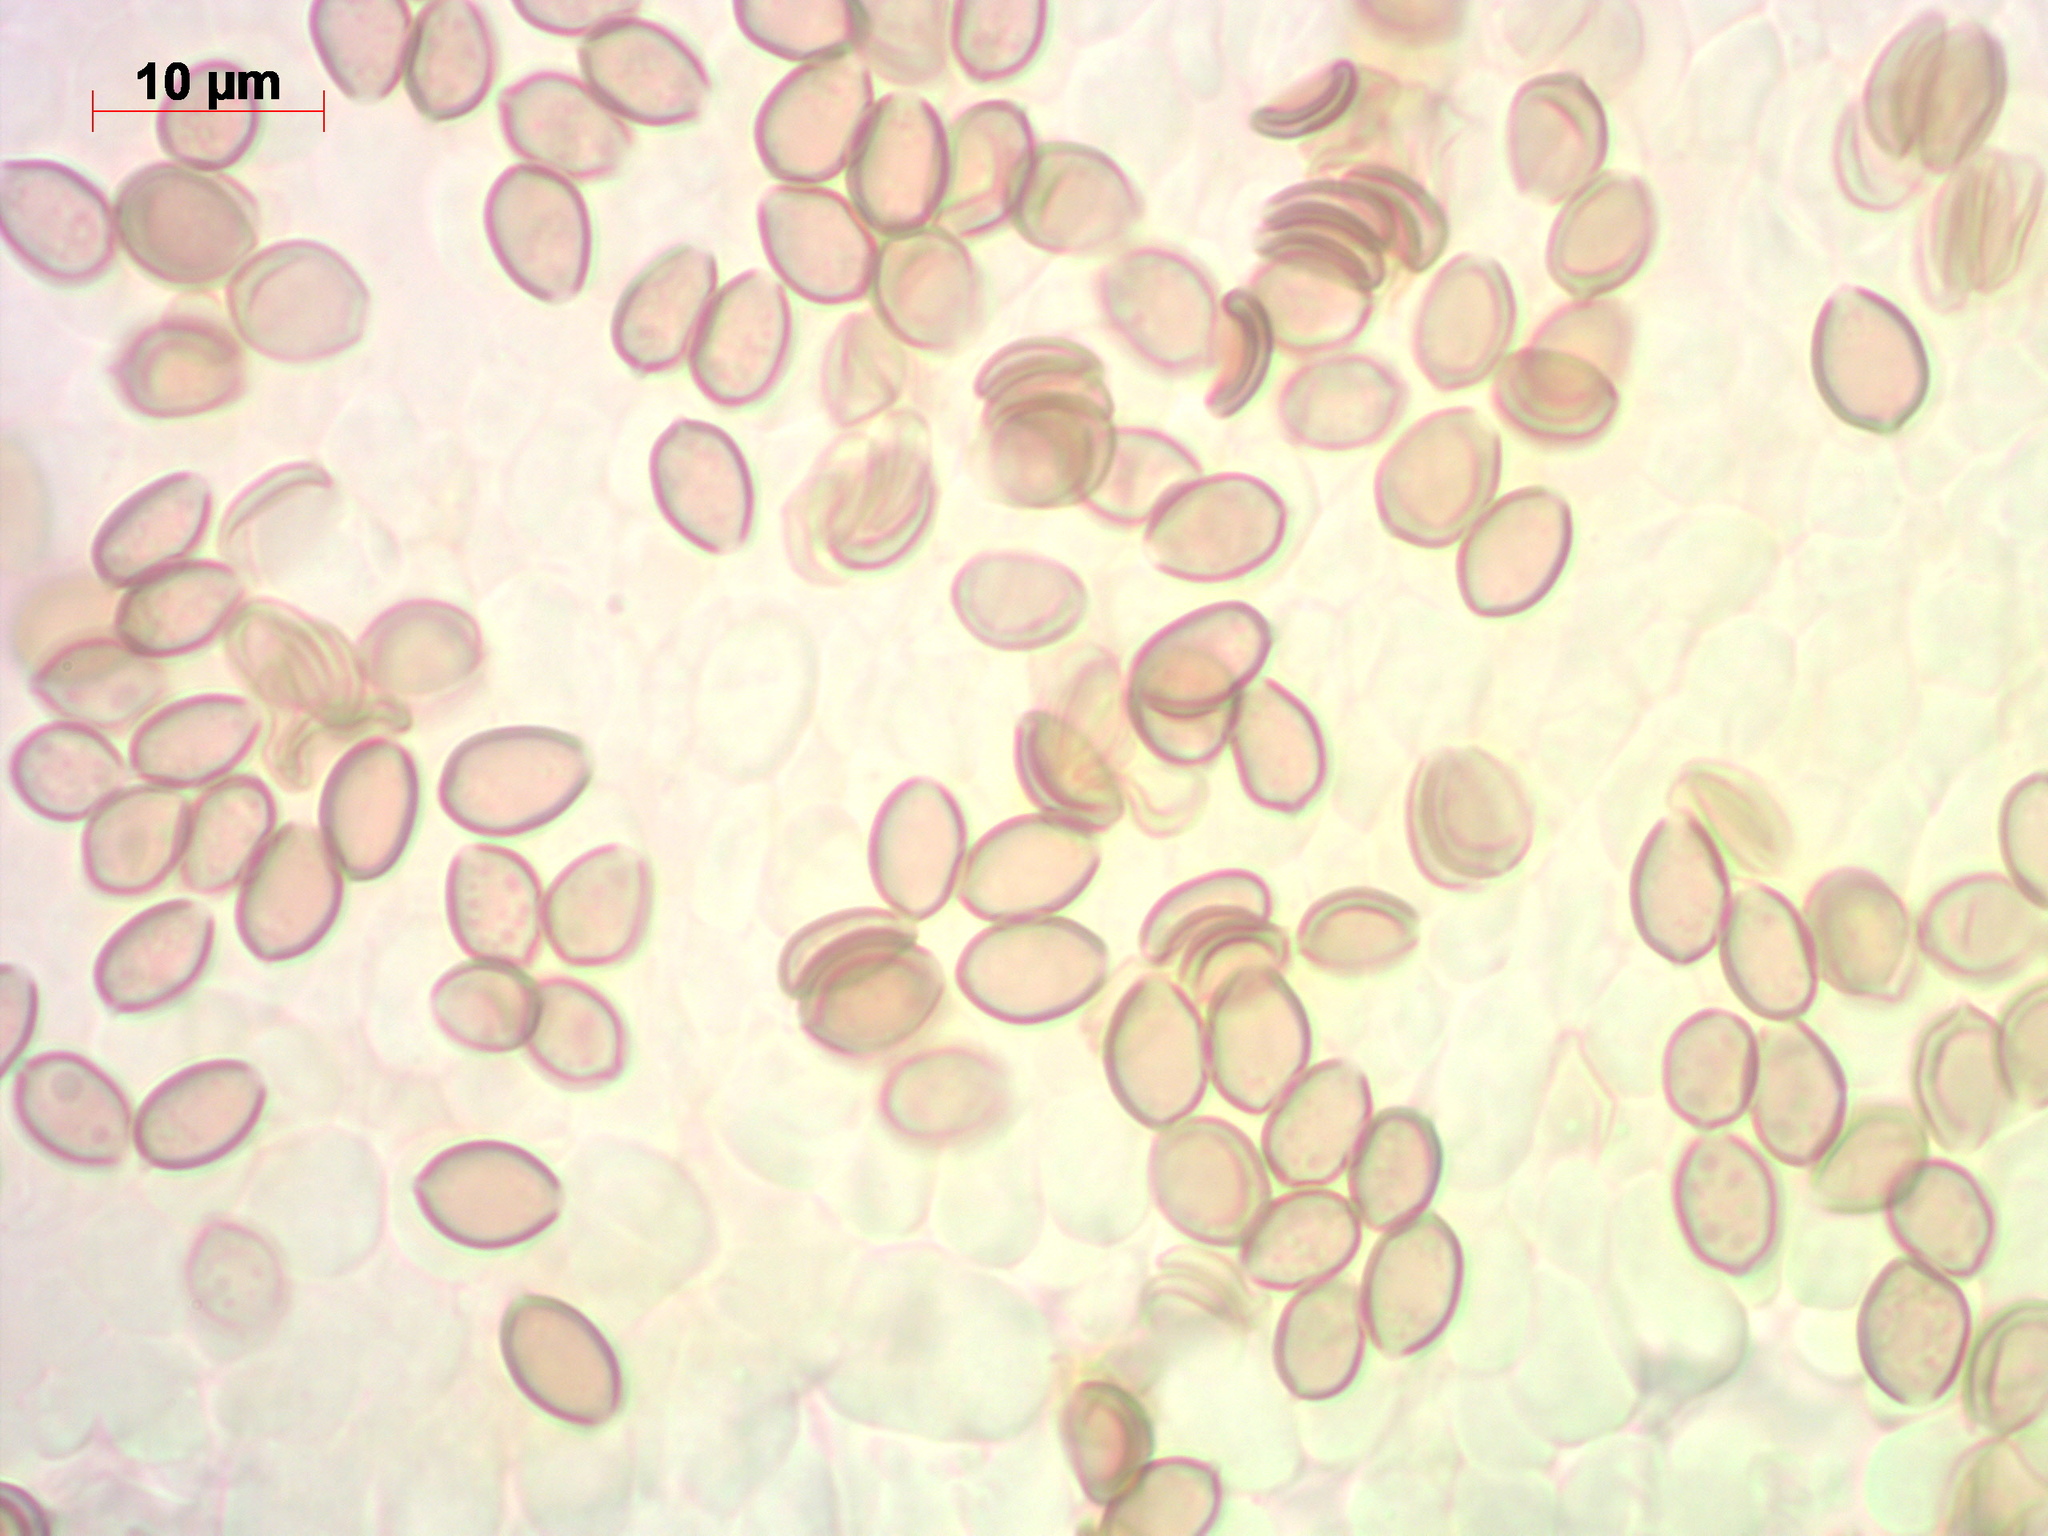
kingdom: Fungi
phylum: Basidiomycota
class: Agaricomycetes
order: Agaricales
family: Strophariaceae
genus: Deconica
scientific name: Deconica crobula
